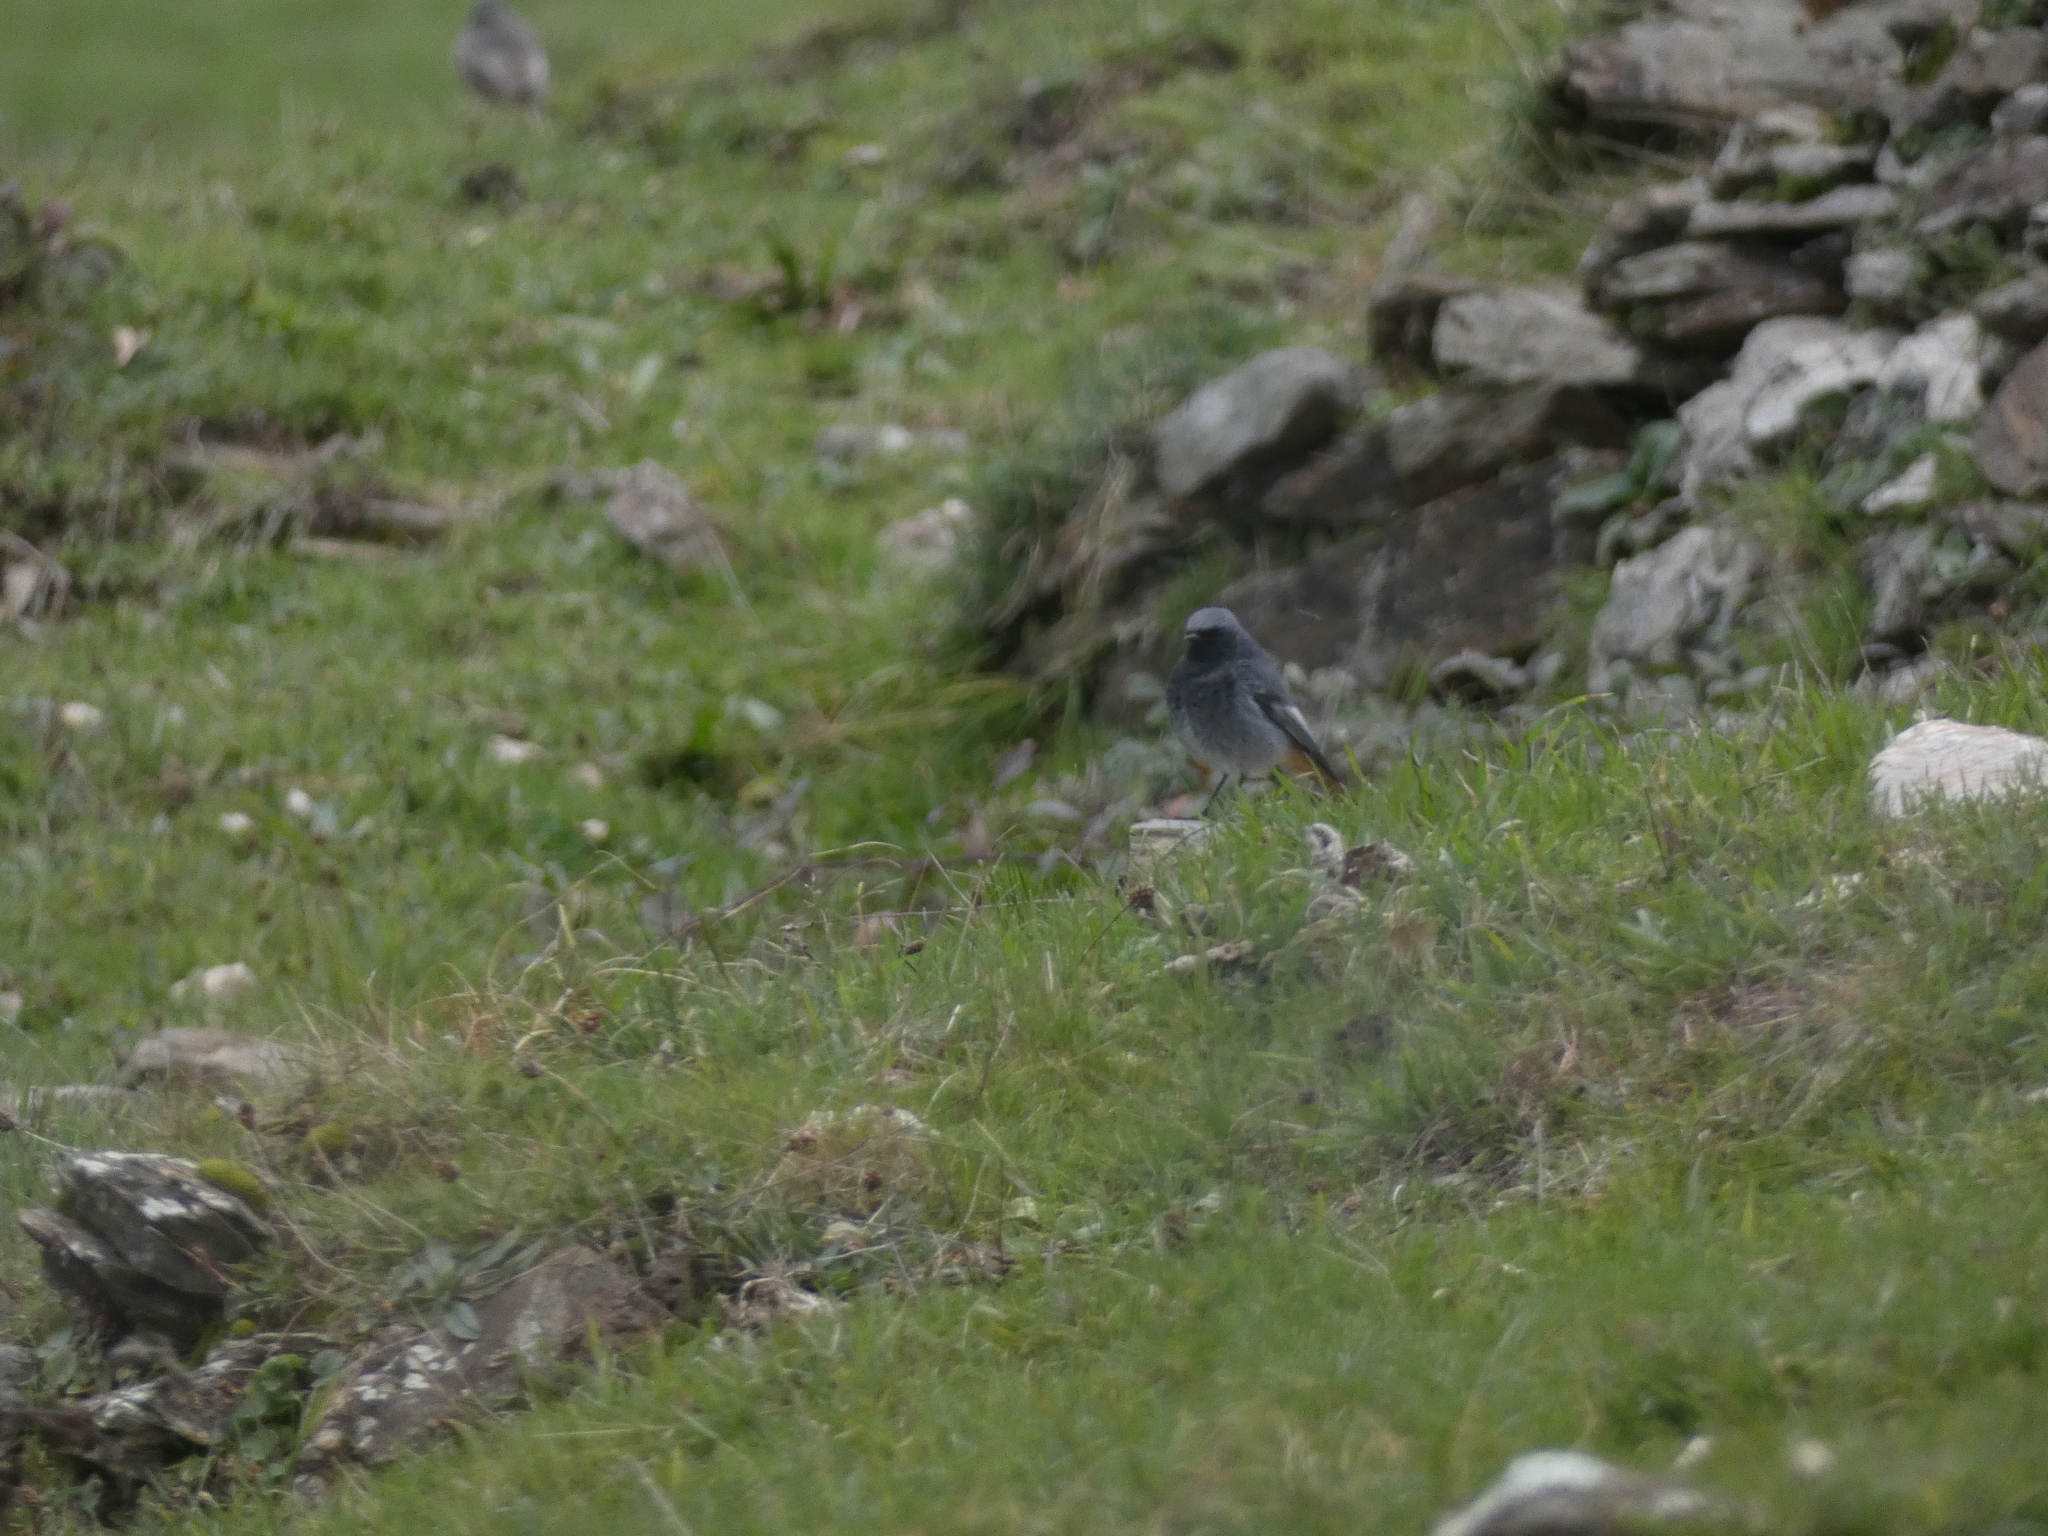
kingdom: Animalia
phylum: Chordata
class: Aves
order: Passeriformes
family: Muscicapidae
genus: Phoenicurus
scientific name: Phoenicurus ochruros
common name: Black redstart
